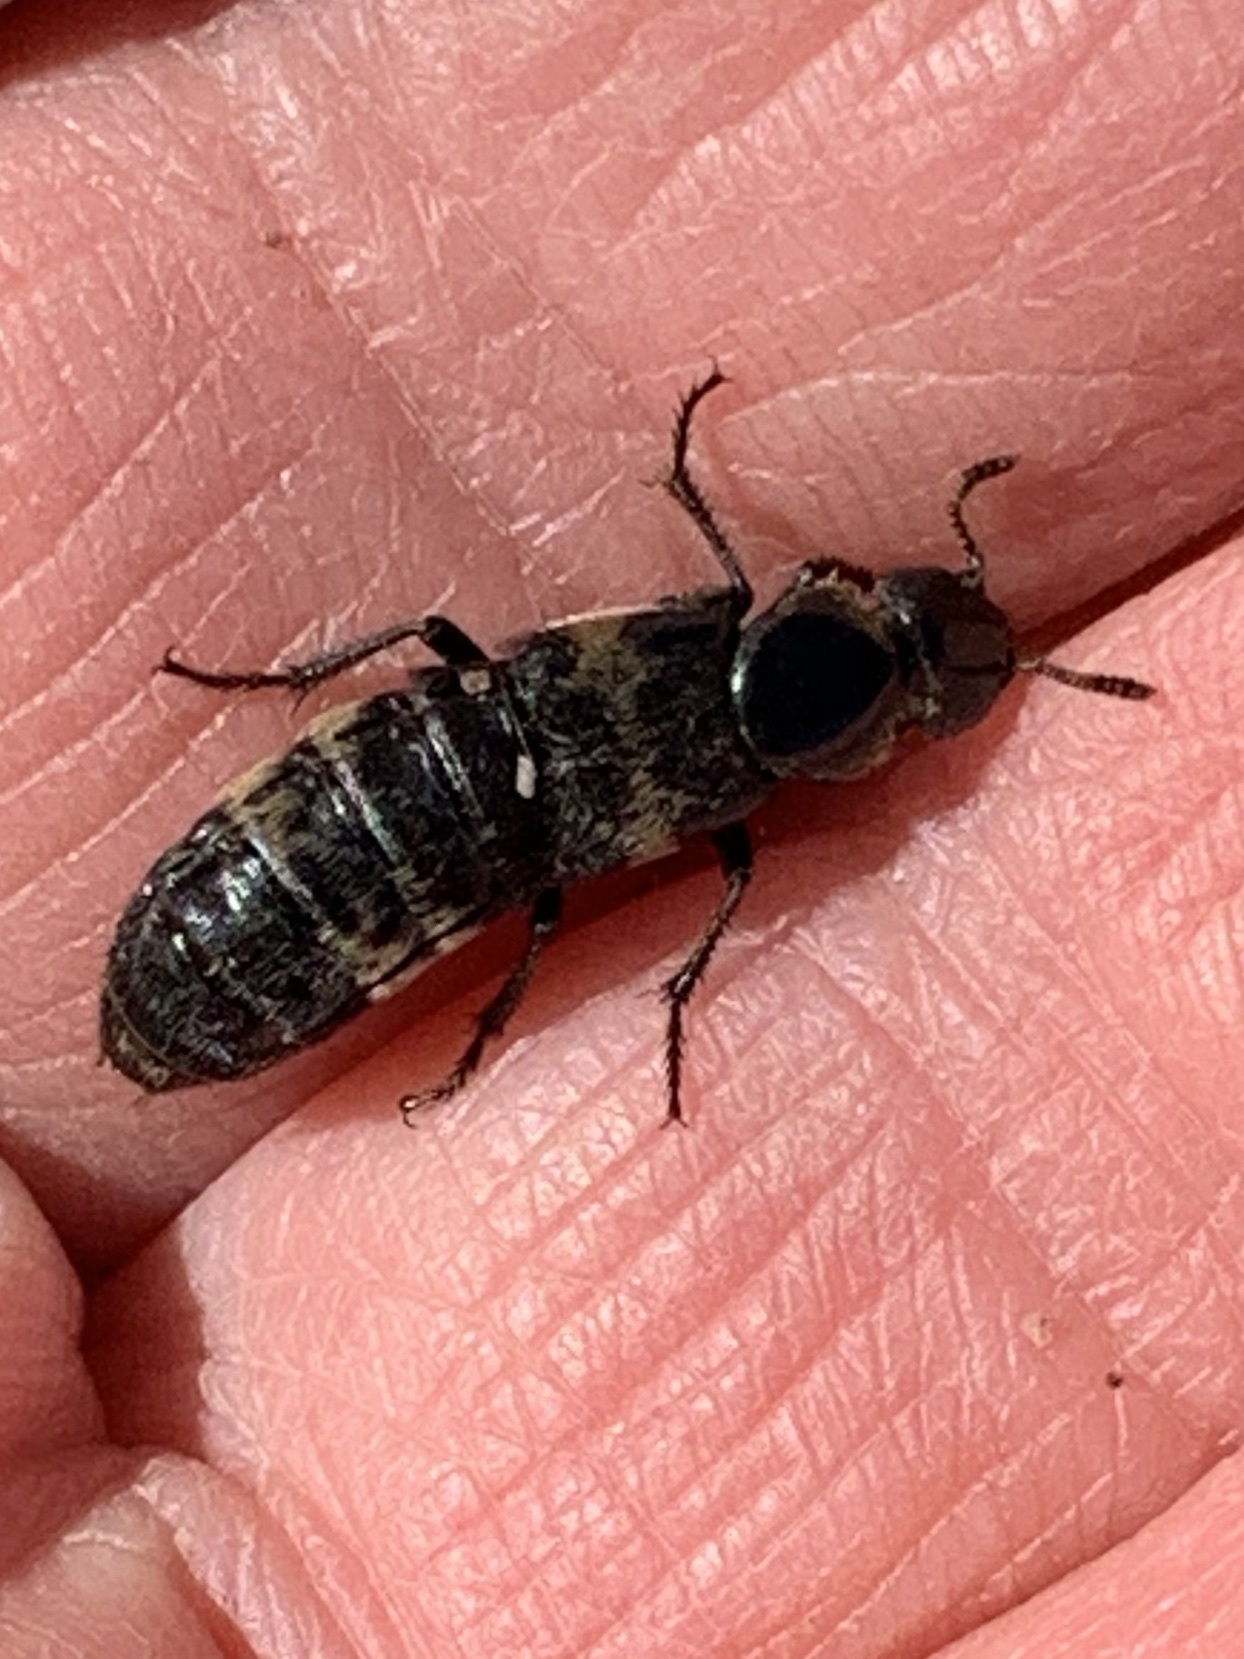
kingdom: Animalia
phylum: Arthropoda
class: Insecta
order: Coleoptera
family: Staphylinidae
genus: Creophilus
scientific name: Creophilus maxillosus
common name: Hairy rove beetle
